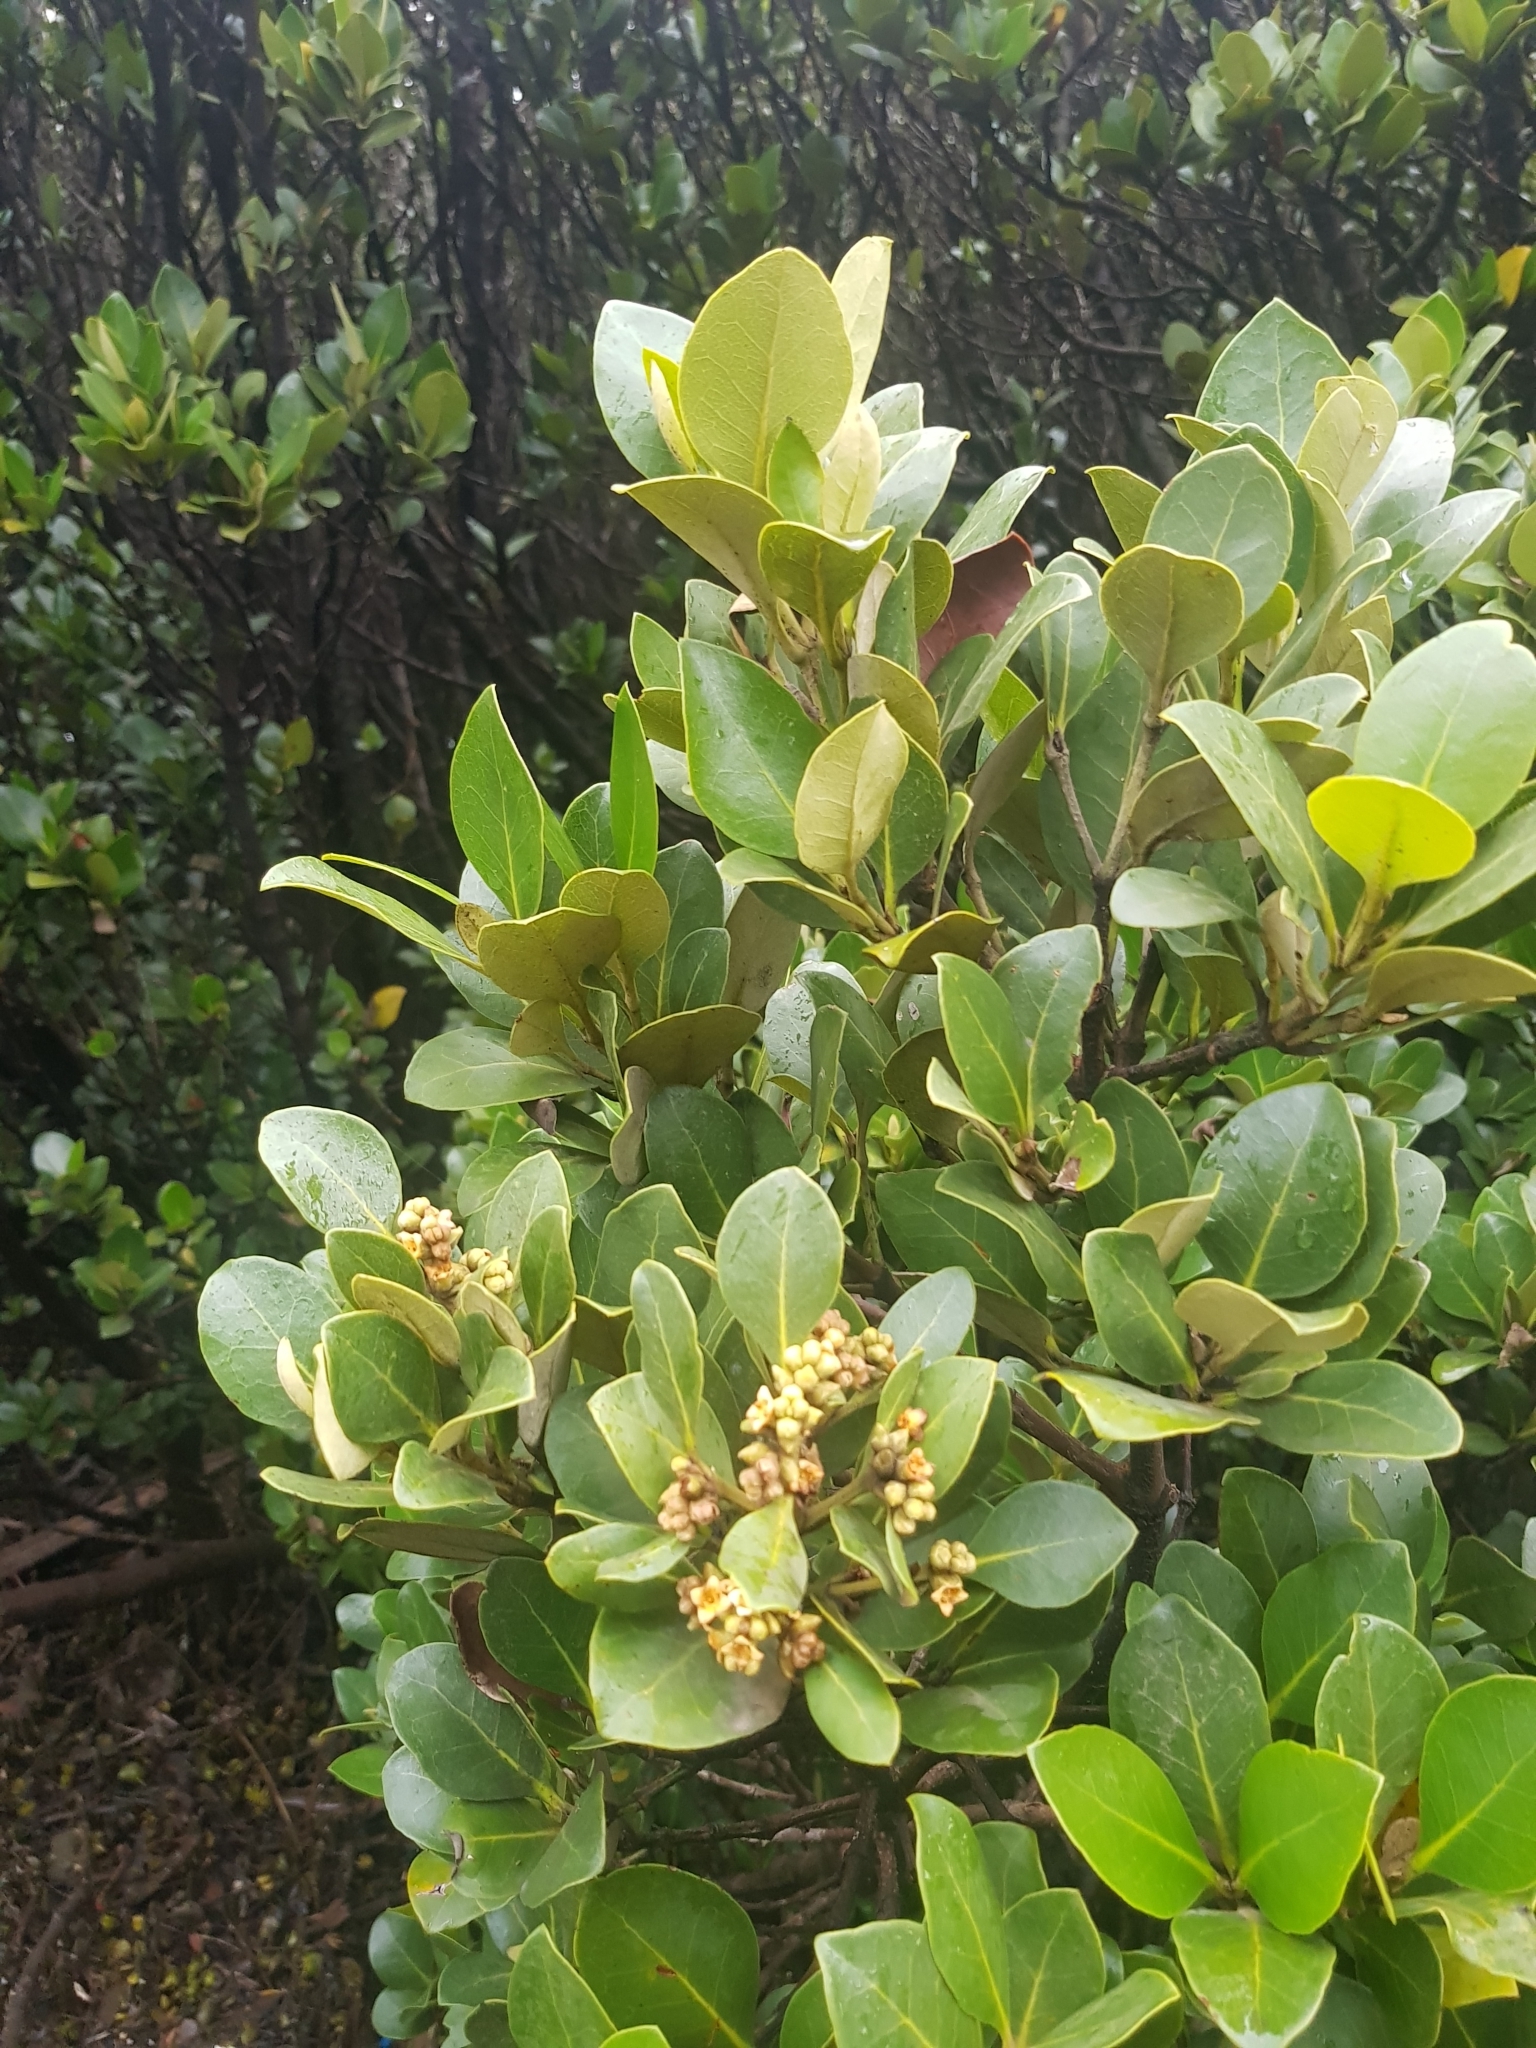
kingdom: Plantae
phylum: Tracheophyta
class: Magnoliopsida
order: Lamiales
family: Acanthaceae
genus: Avicennia
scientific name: Avicennia marina
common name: Gray mangrove
